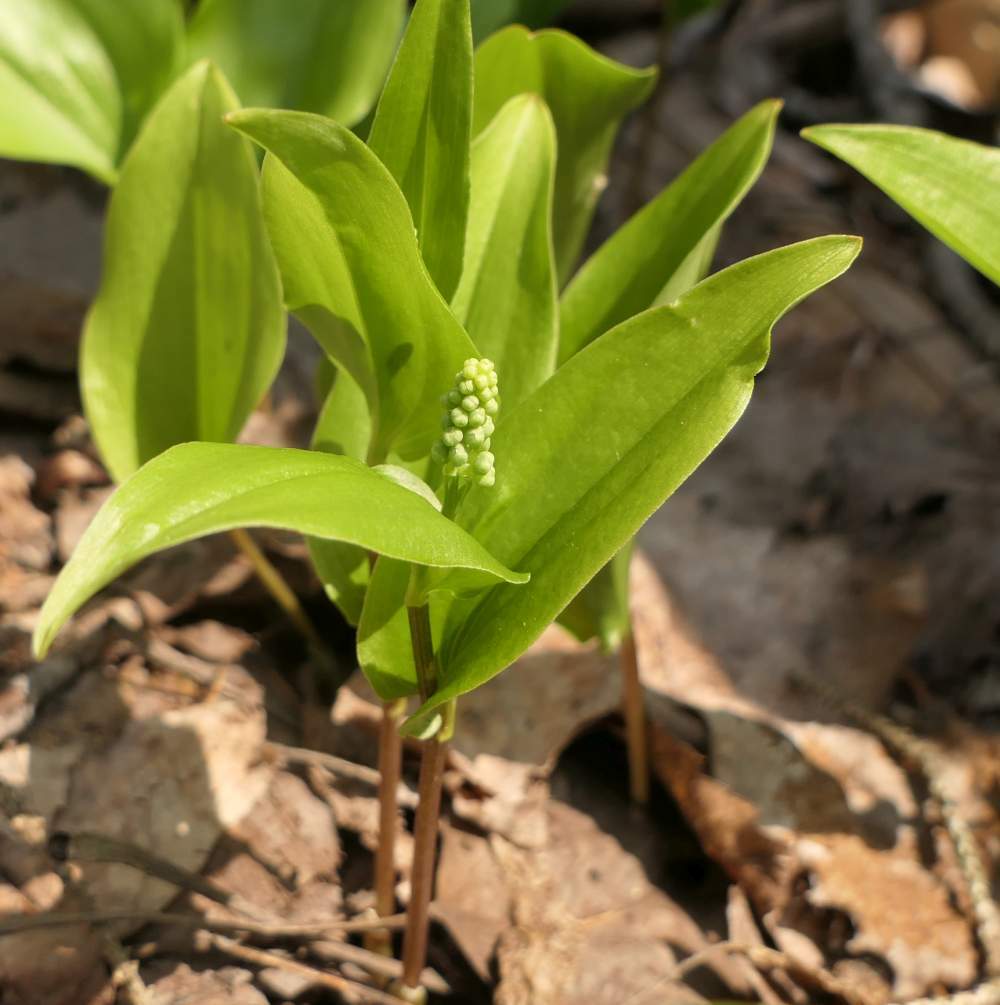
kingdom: Plantae
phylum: Tracheophyta
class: Liliopsida
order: Asparagales
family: Asparagaceae
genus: Maianthemum
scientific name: Maianthemum canadense
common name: False lily-of-the-valley
